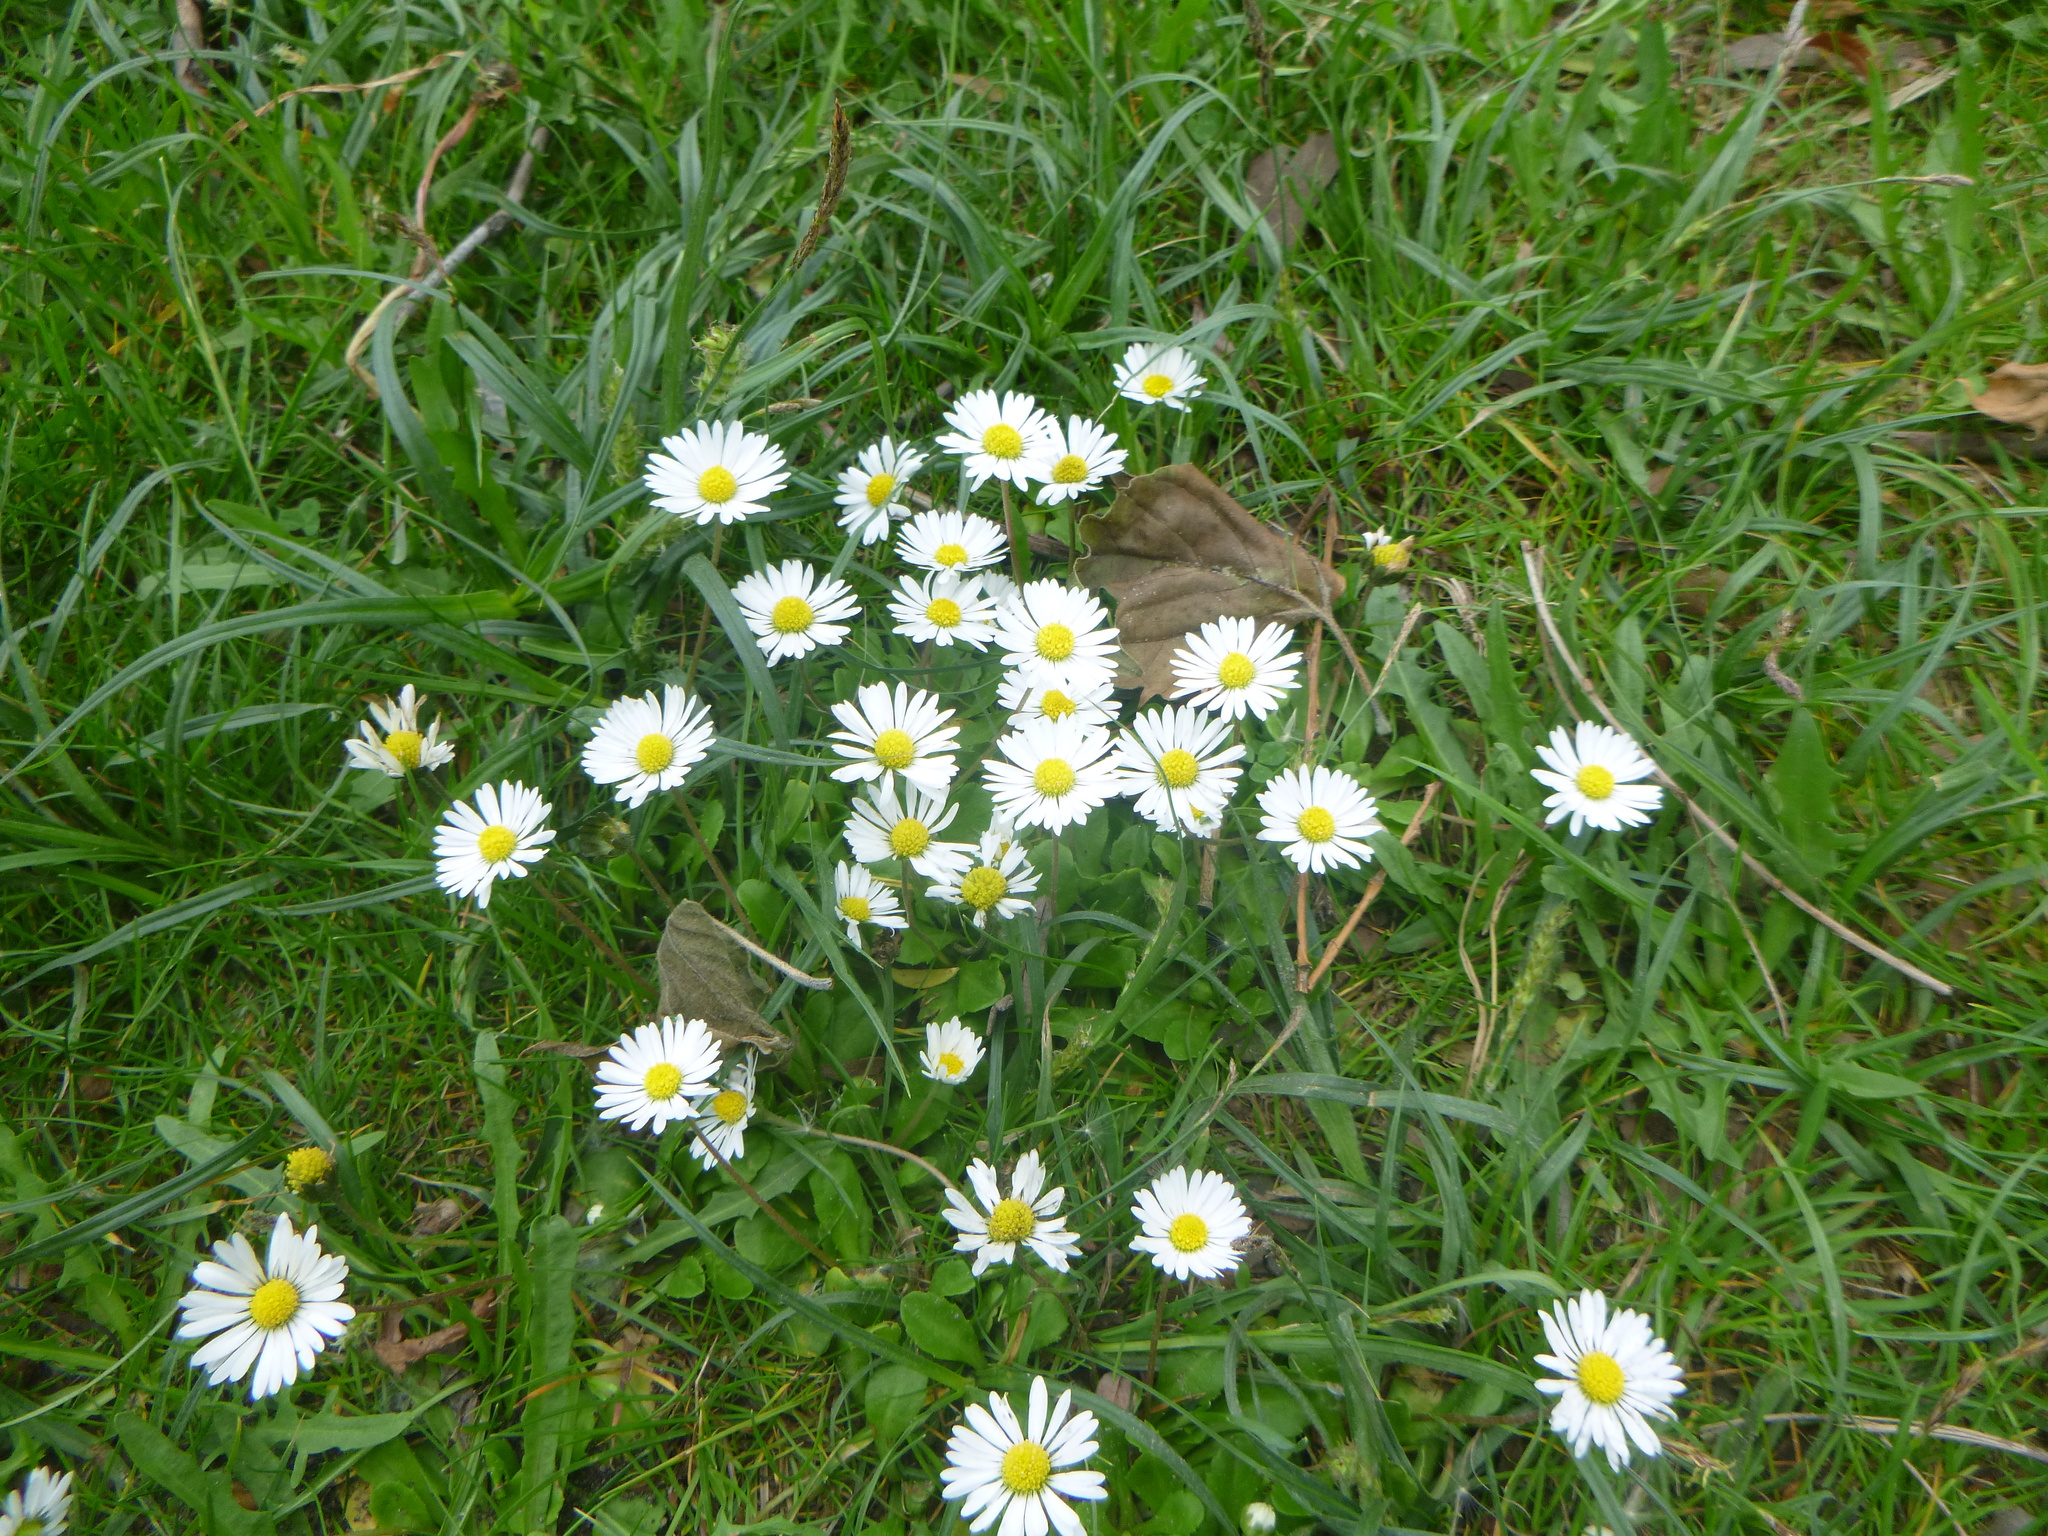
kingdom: Plantae
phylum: Tracheophyta
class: Magnoliopsida
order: Asterales
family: Asteraceae
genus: Bellis
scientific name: Bellis perennis
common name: Lawndaisy
